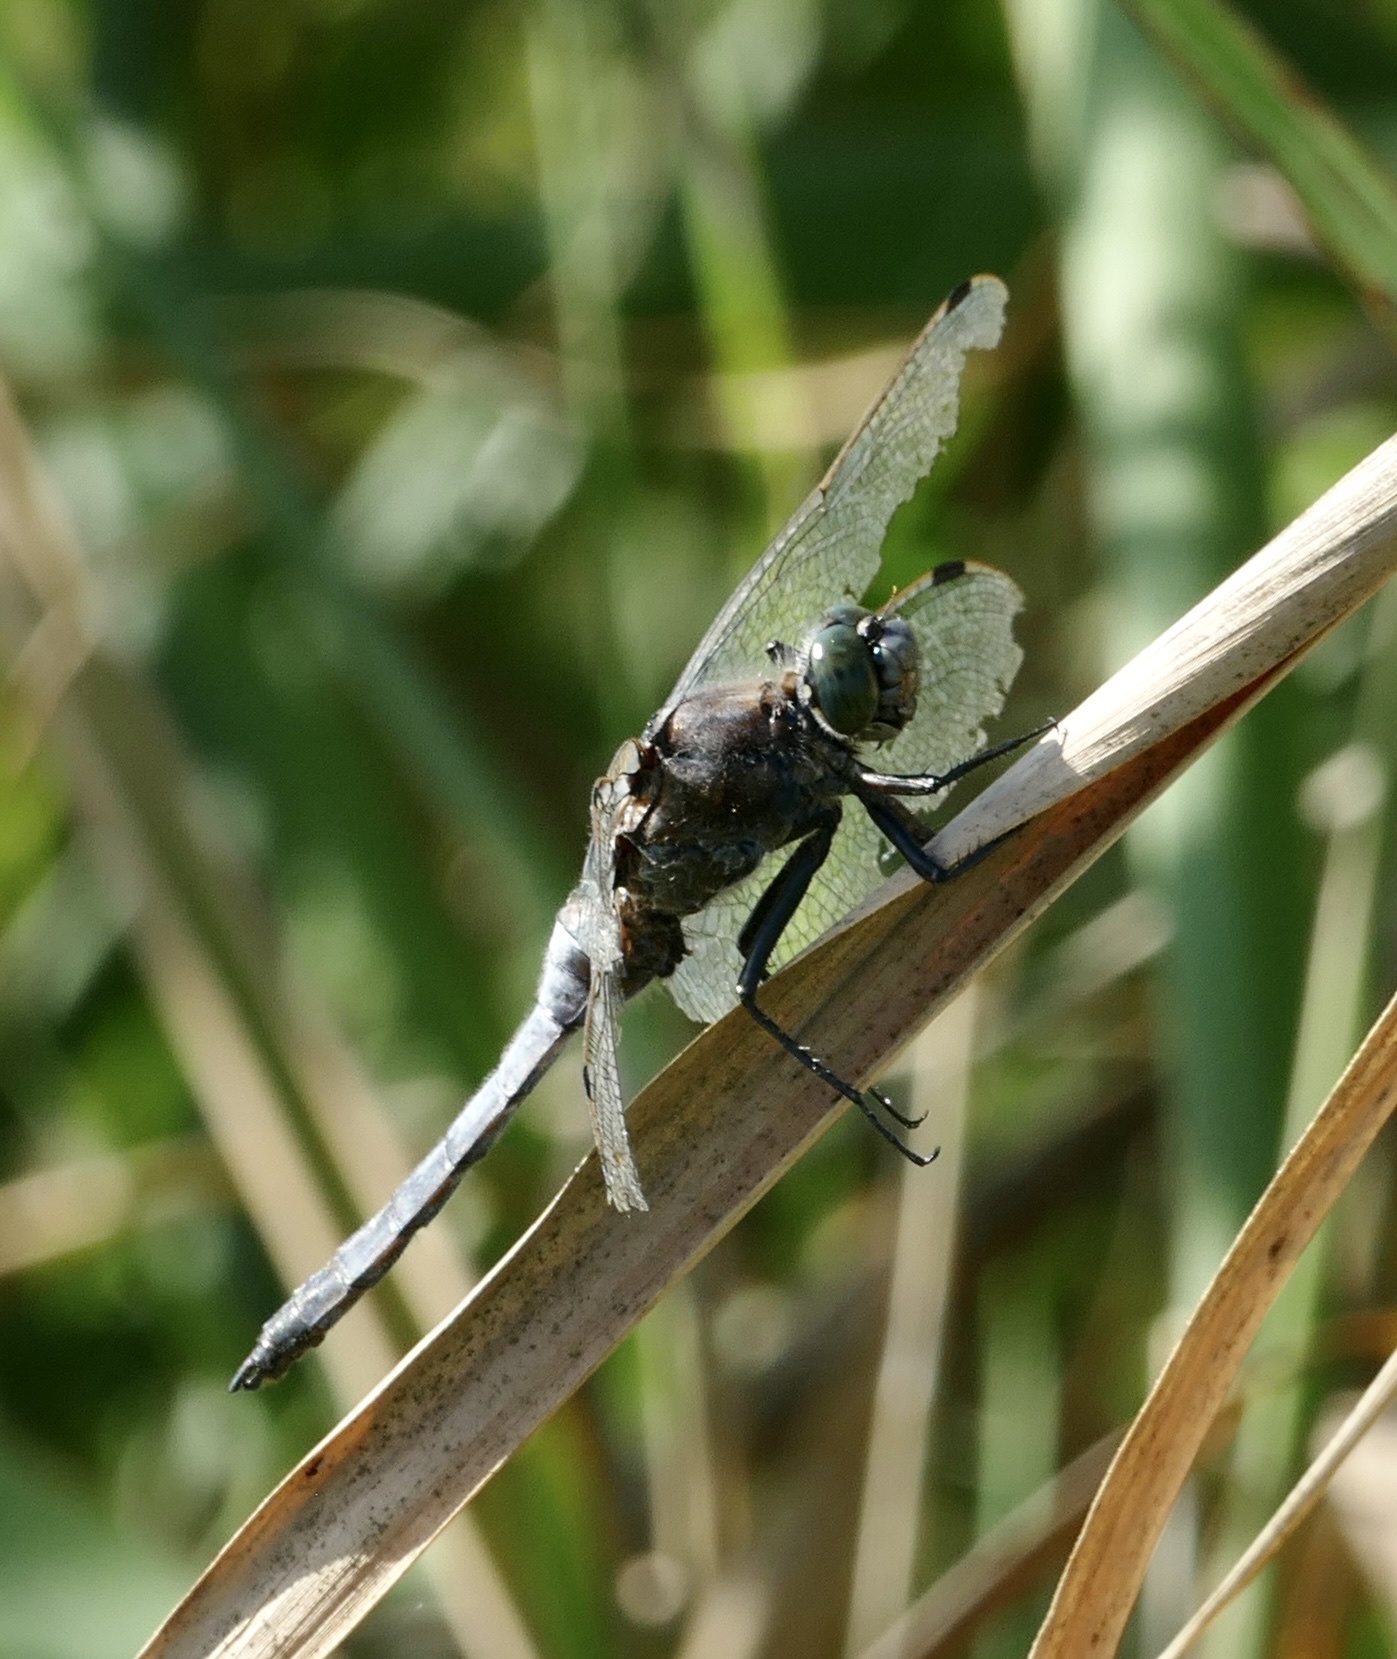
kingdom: Animalia
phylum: Arthropoda
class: Insecta
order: Odonata
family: Libellulidae
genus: Orthetrum
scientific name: Orthetrum cancellatum
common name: Black-tailed skimmer
